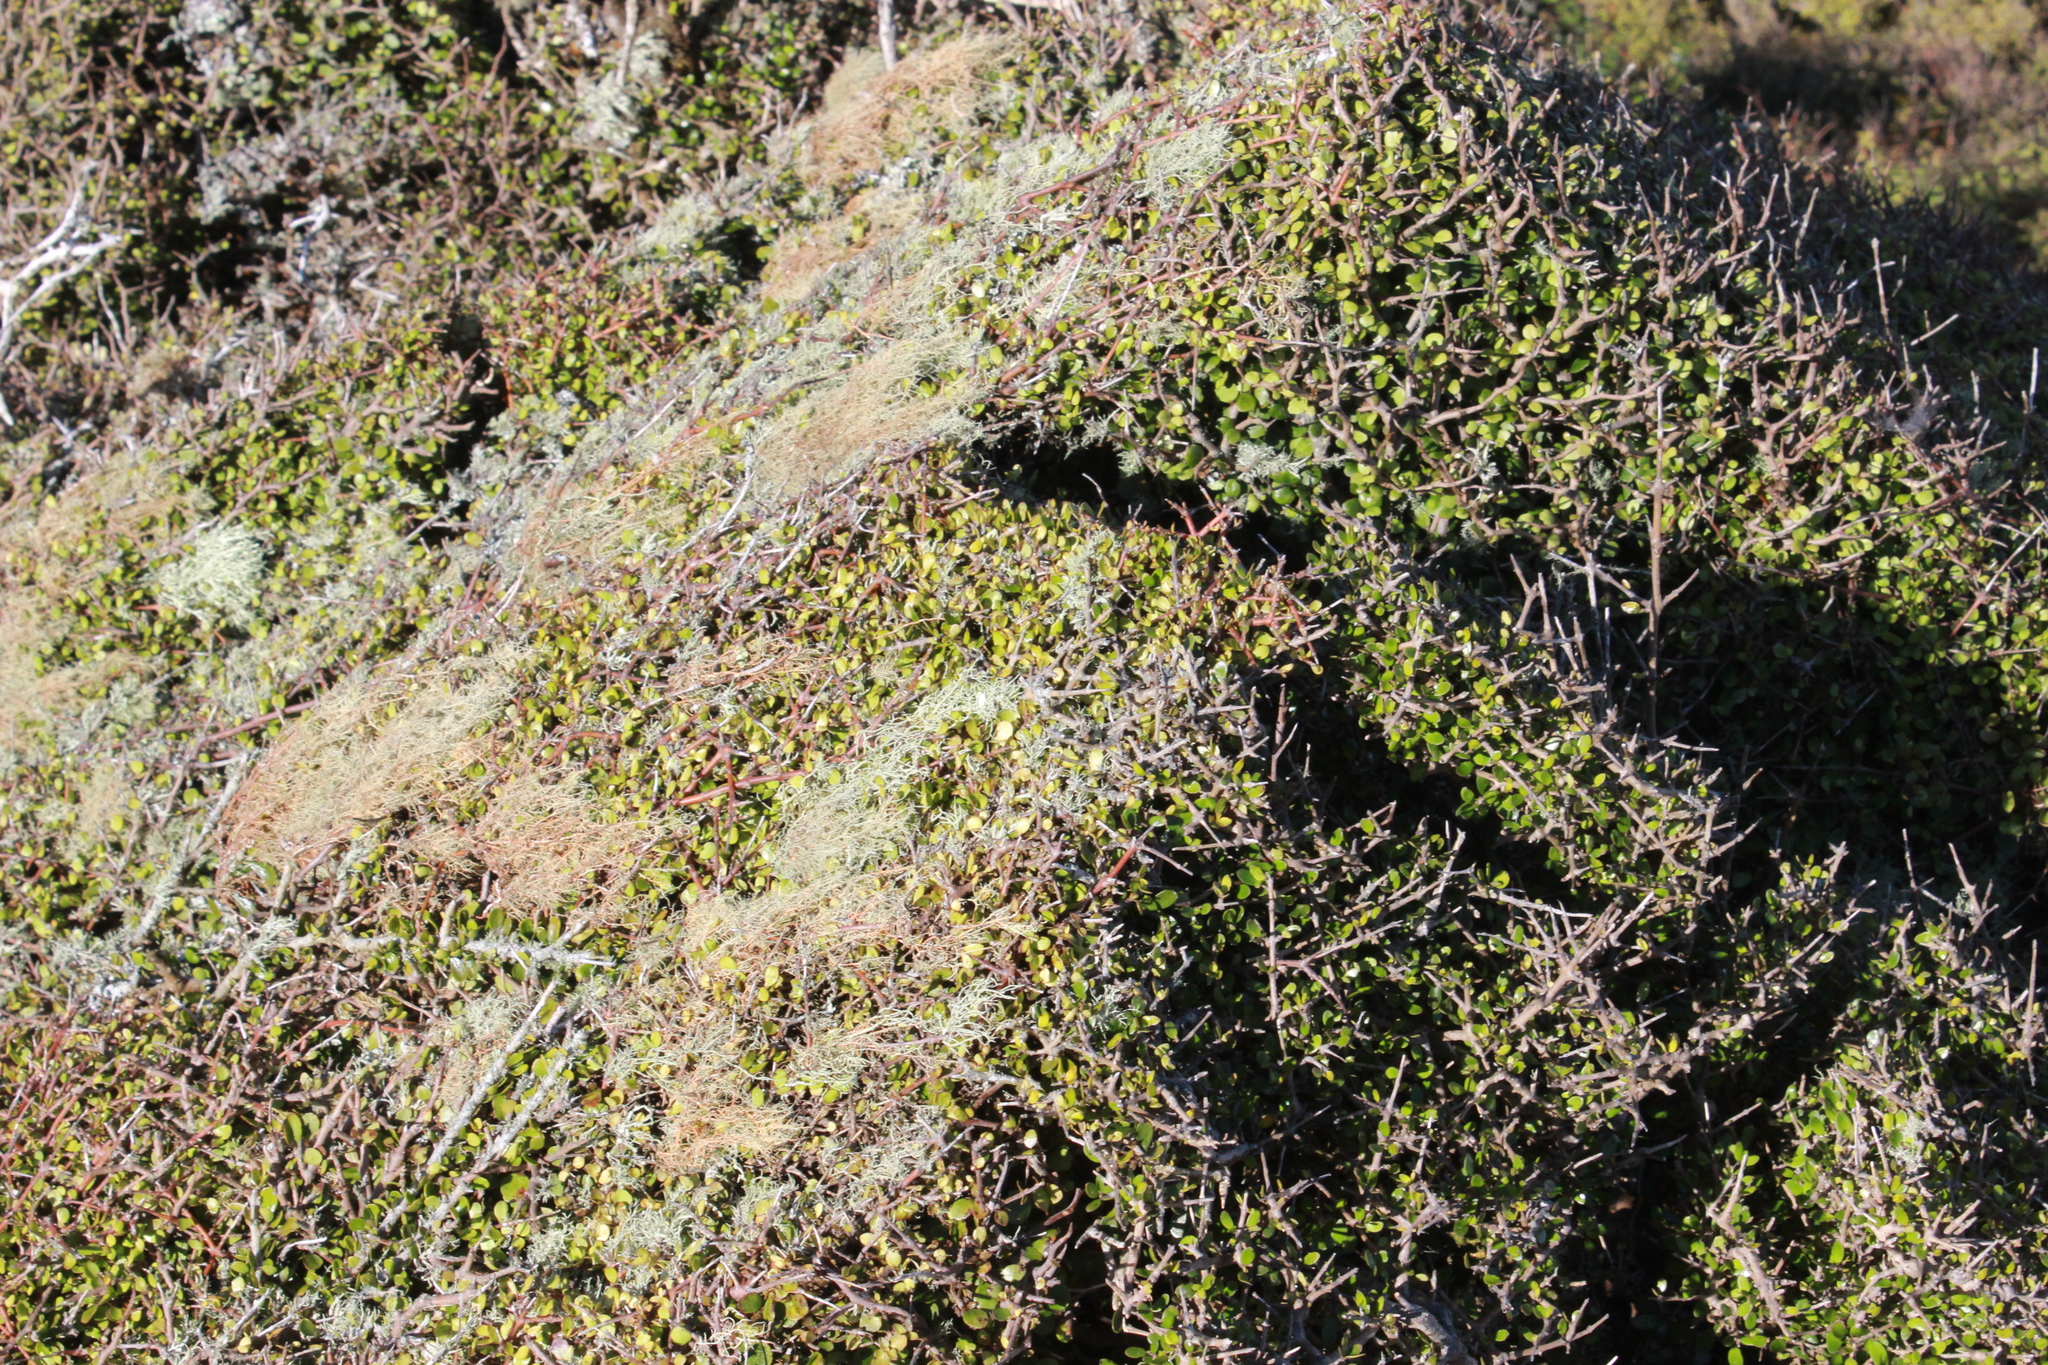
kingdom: Plantae
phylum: Tracheophyta
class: Magnoliopsida
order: Gentianales
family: Rubiaceae
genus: Coprosma
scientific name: Coprosma propinqua
